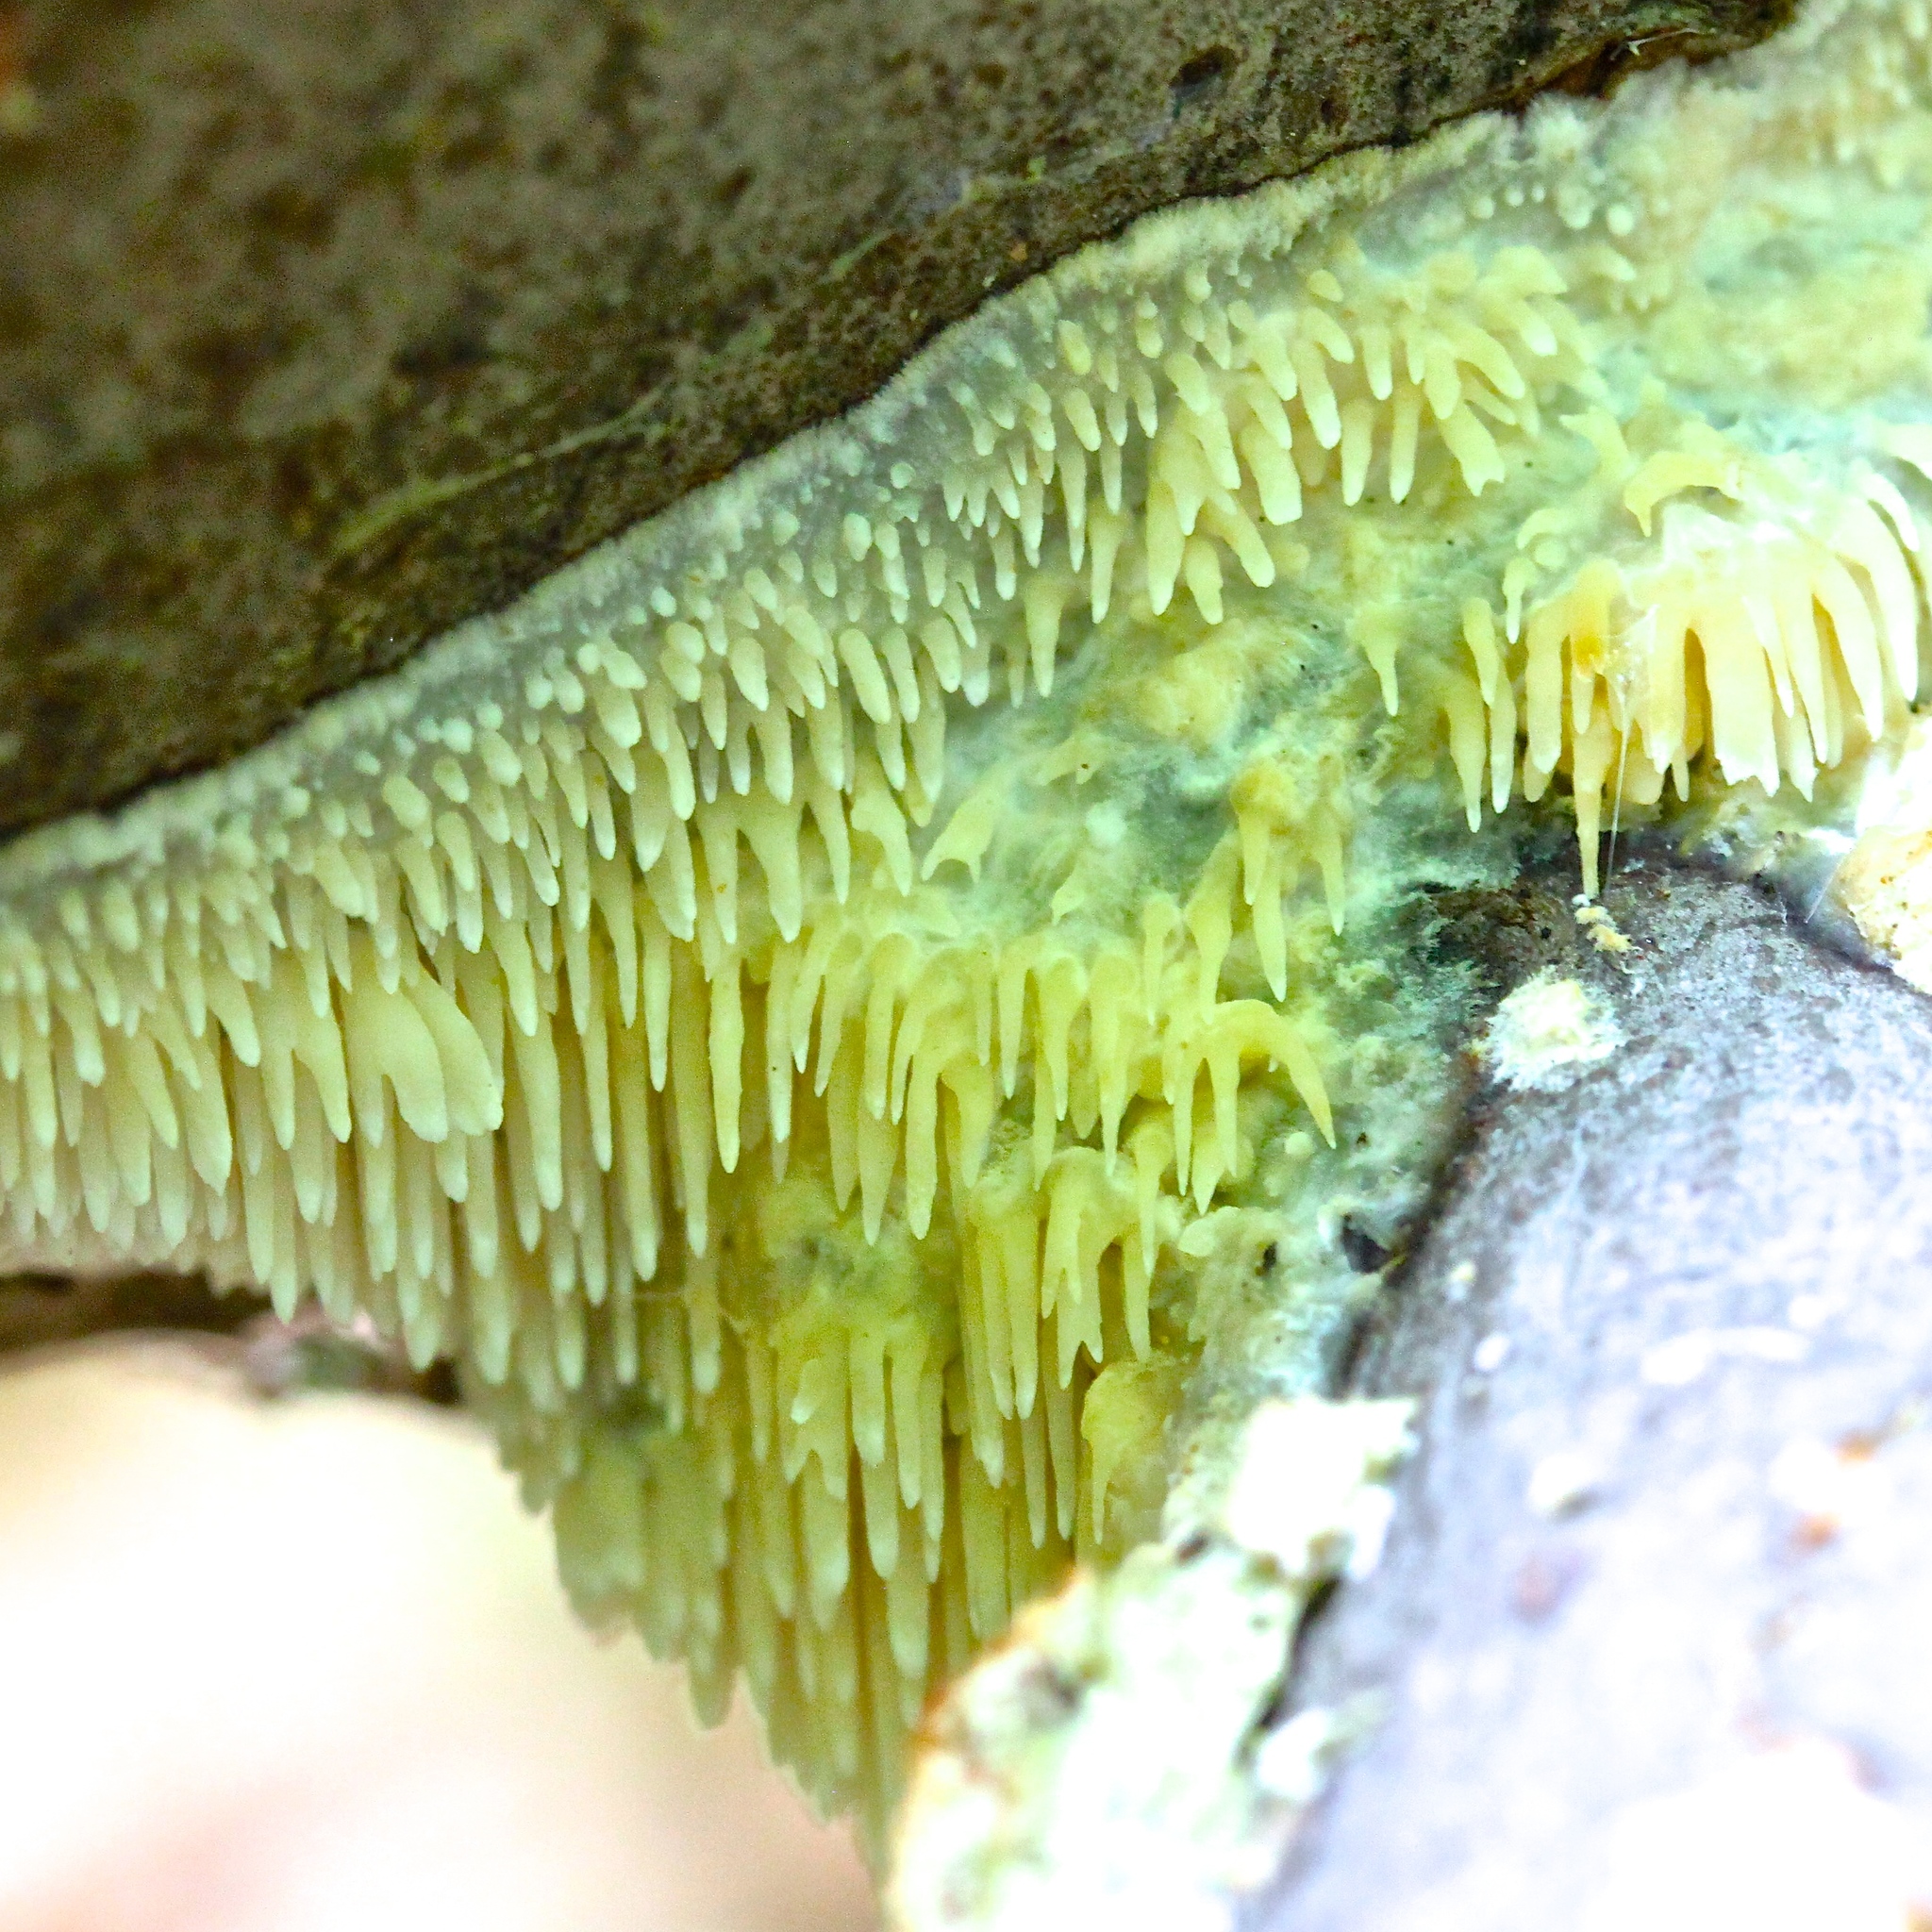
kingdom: Fungi
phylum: Basidiomycota
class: Agaricomycetes
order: Polyporales
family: Meruliaceae
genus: Noblesia
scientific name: Noblesia crocea
